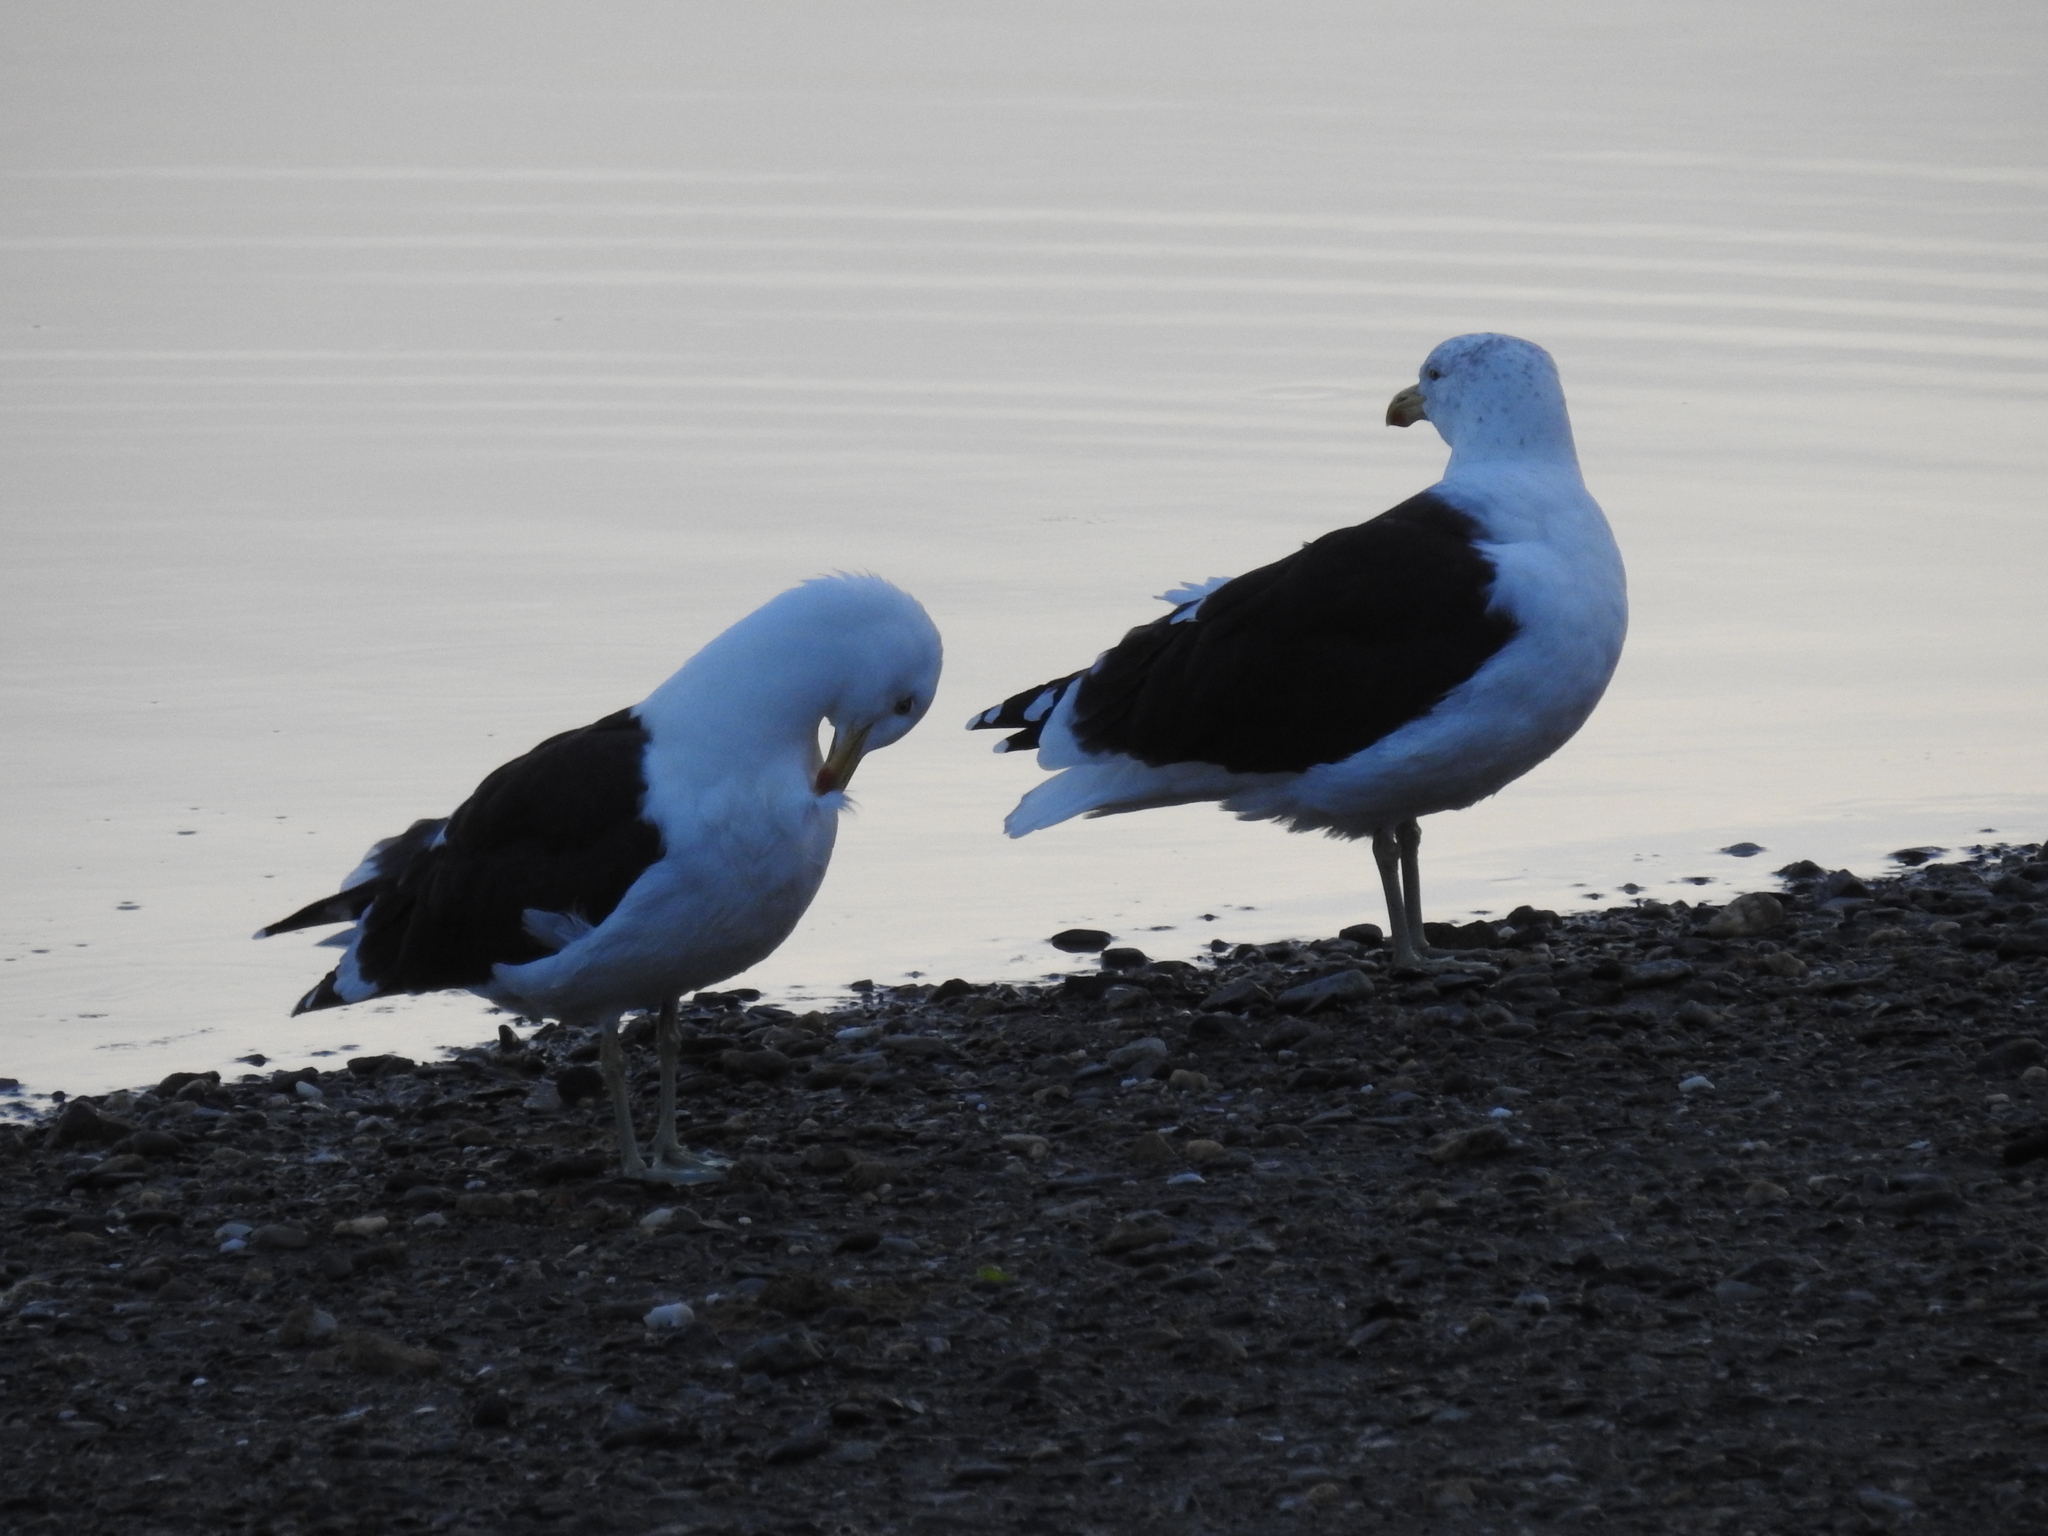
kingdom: Animalia
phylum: Chordata
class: Aves
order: Charadriiformes
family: Laridae
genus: Larus
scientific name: Larus dominicanus
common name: Kelp gull
